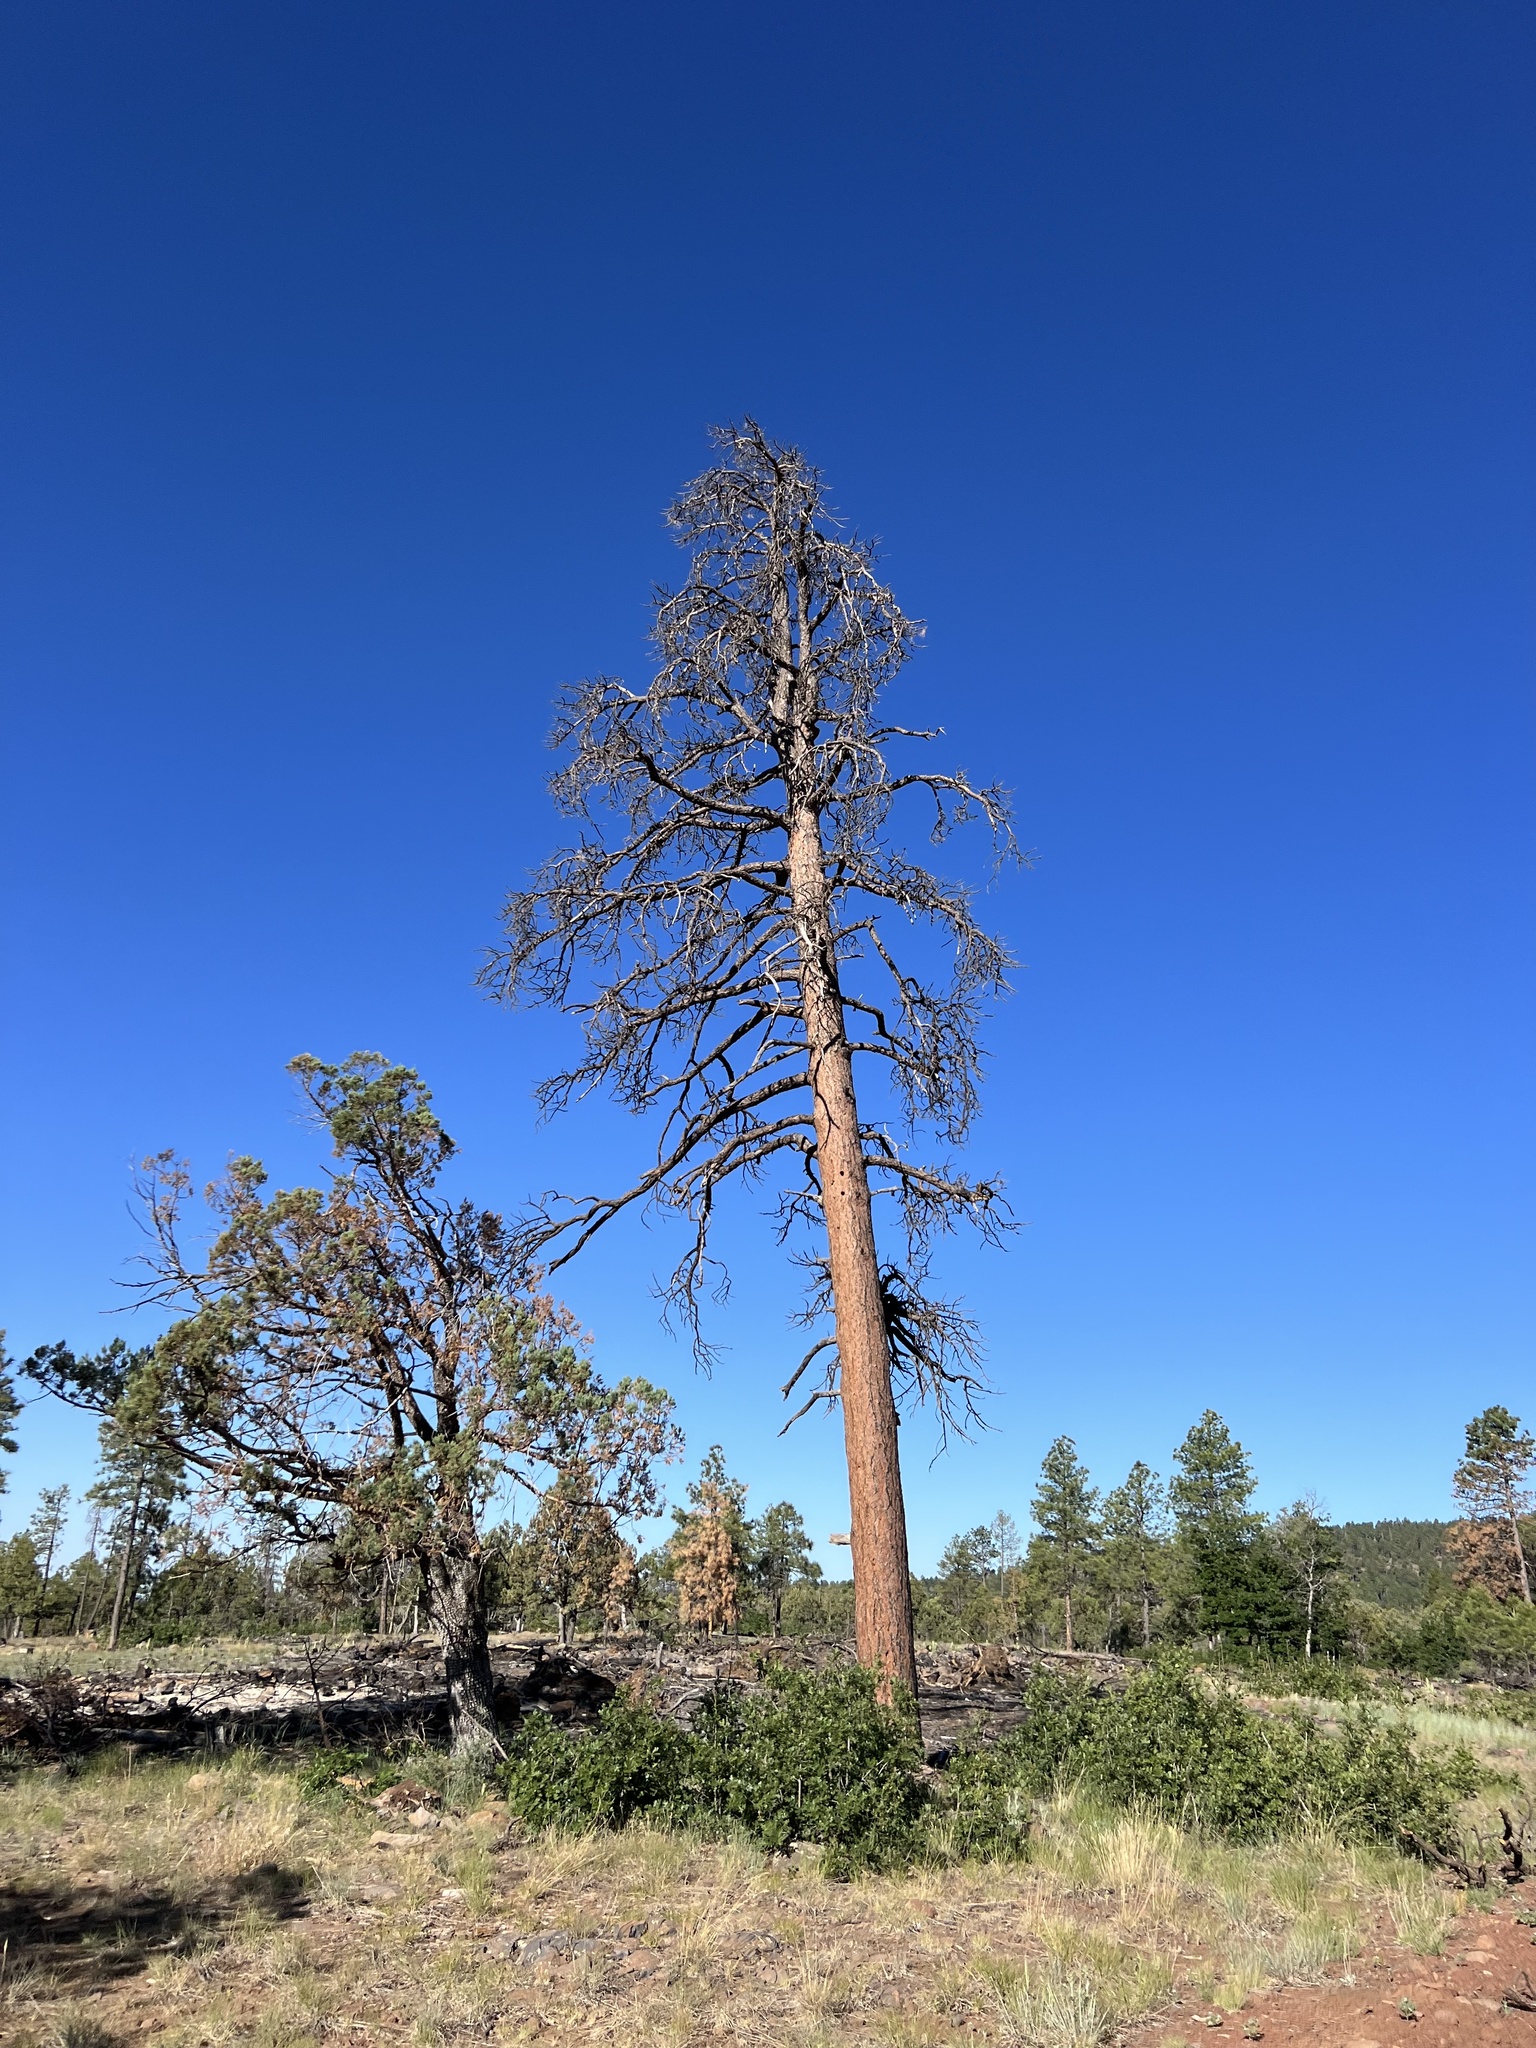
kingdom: Plantae
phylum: Tracheophyta
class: Pinopsida
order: Pinales
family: Pinaceae
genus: Pinus
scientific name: Pinus ponderosa
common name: Western yellow-pine
